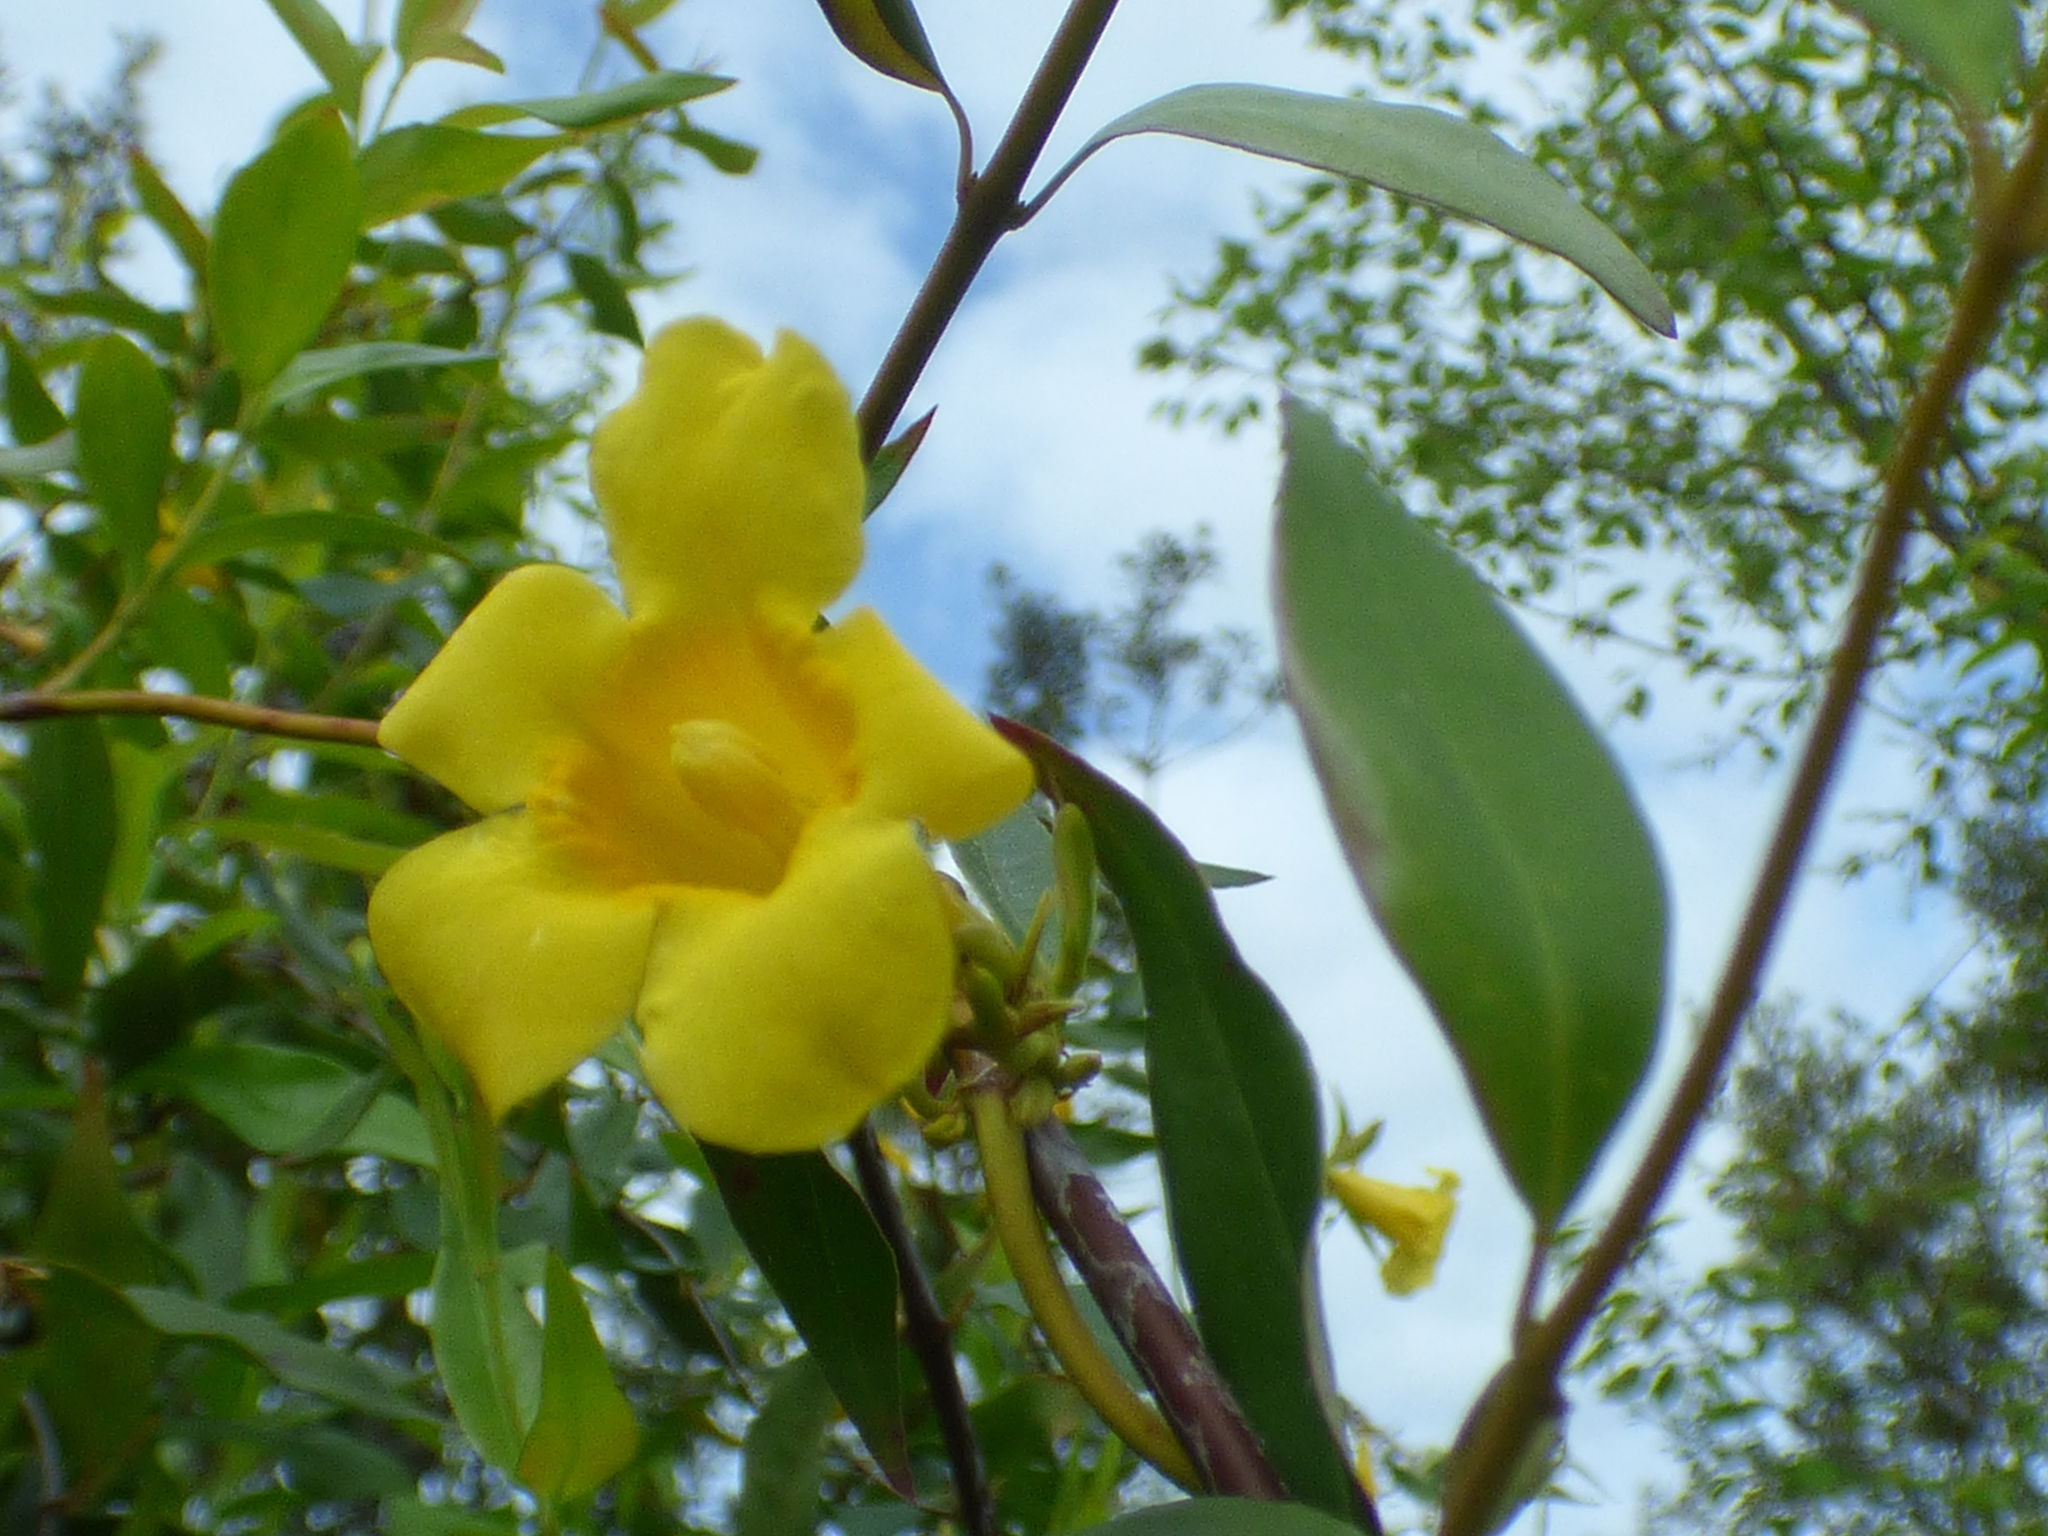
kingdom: Plantae
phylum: Tracheophyta
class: Magnoliopsida
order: Gentianales
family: Gelsemiaceae
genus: Gelsemium
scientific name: Gelsemium sempervirens
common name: Carolina-jasmine
